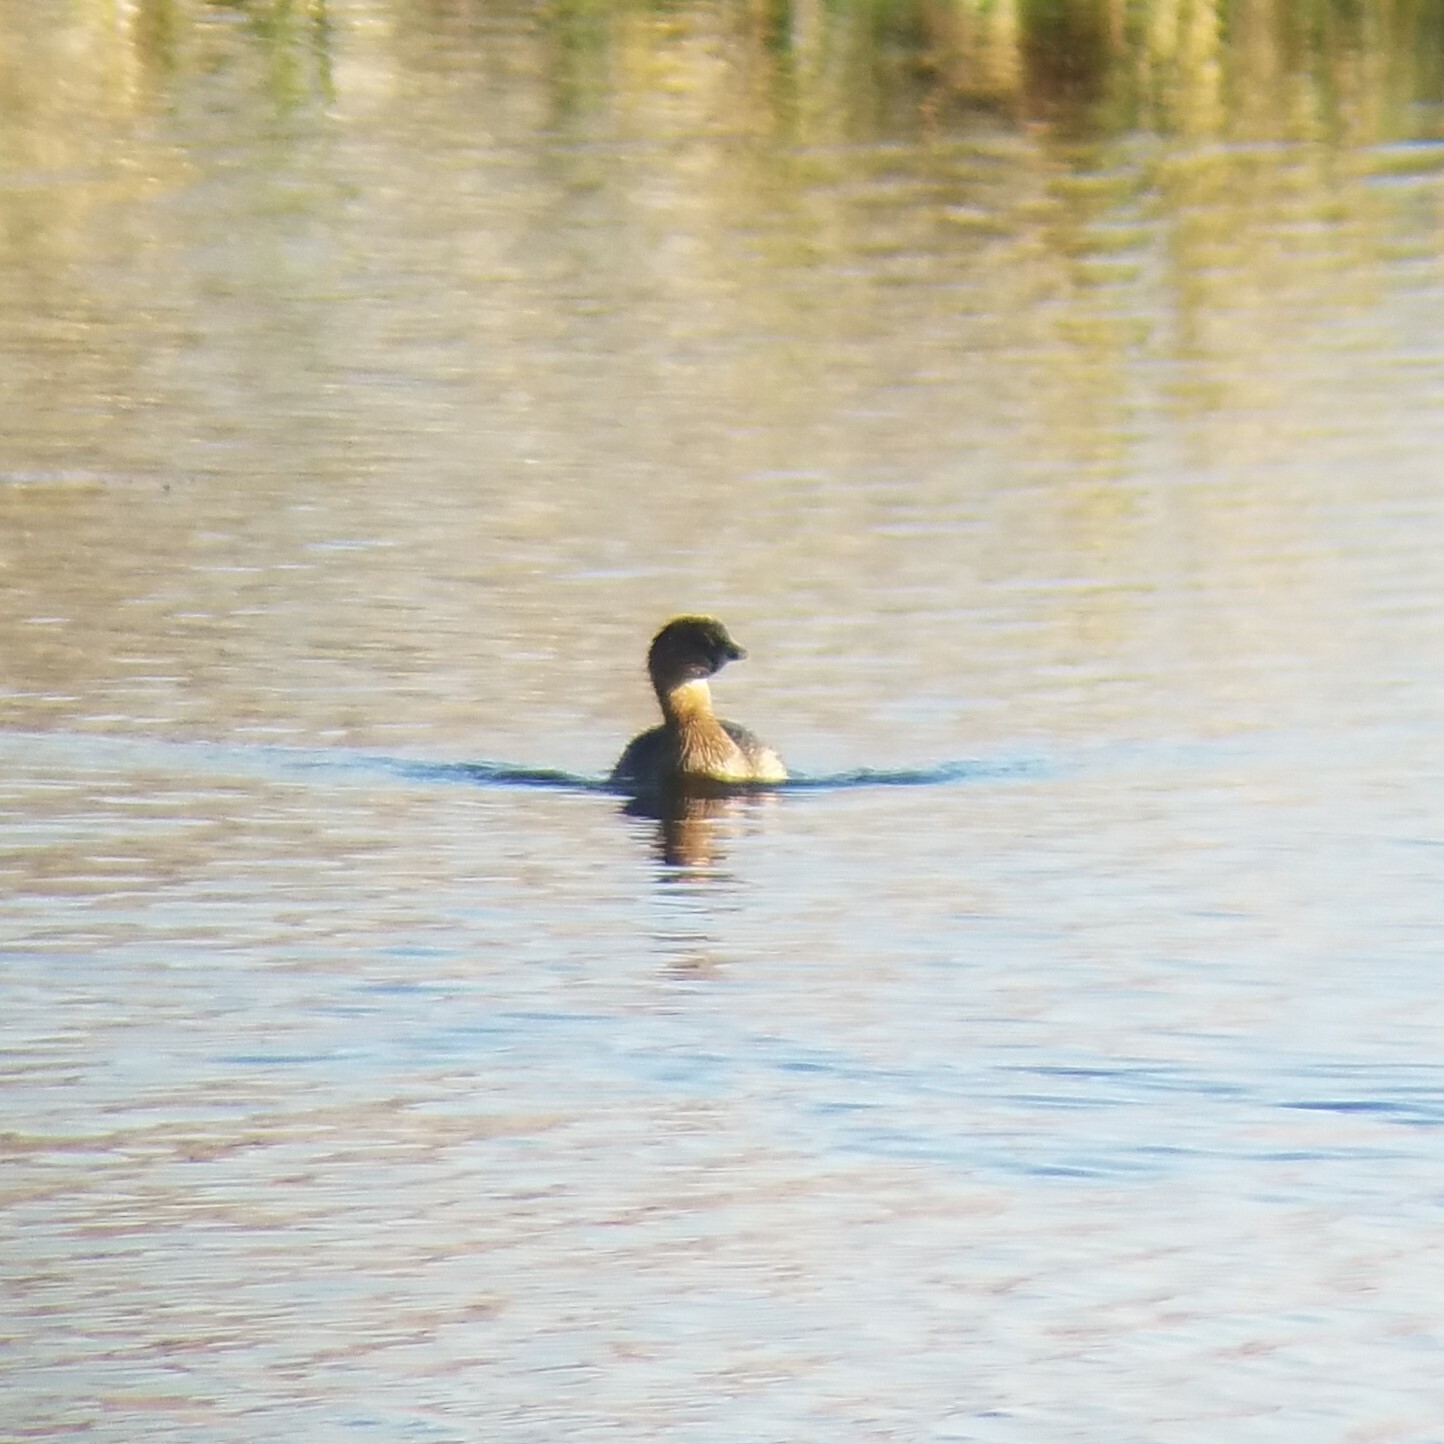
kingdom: Animalia
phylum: Chordata
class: Aves
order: Podicipediformes
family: Podicipedidae
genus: Podilymbus
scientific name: Podilymbus podiceps
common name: Pied-billed grebe
